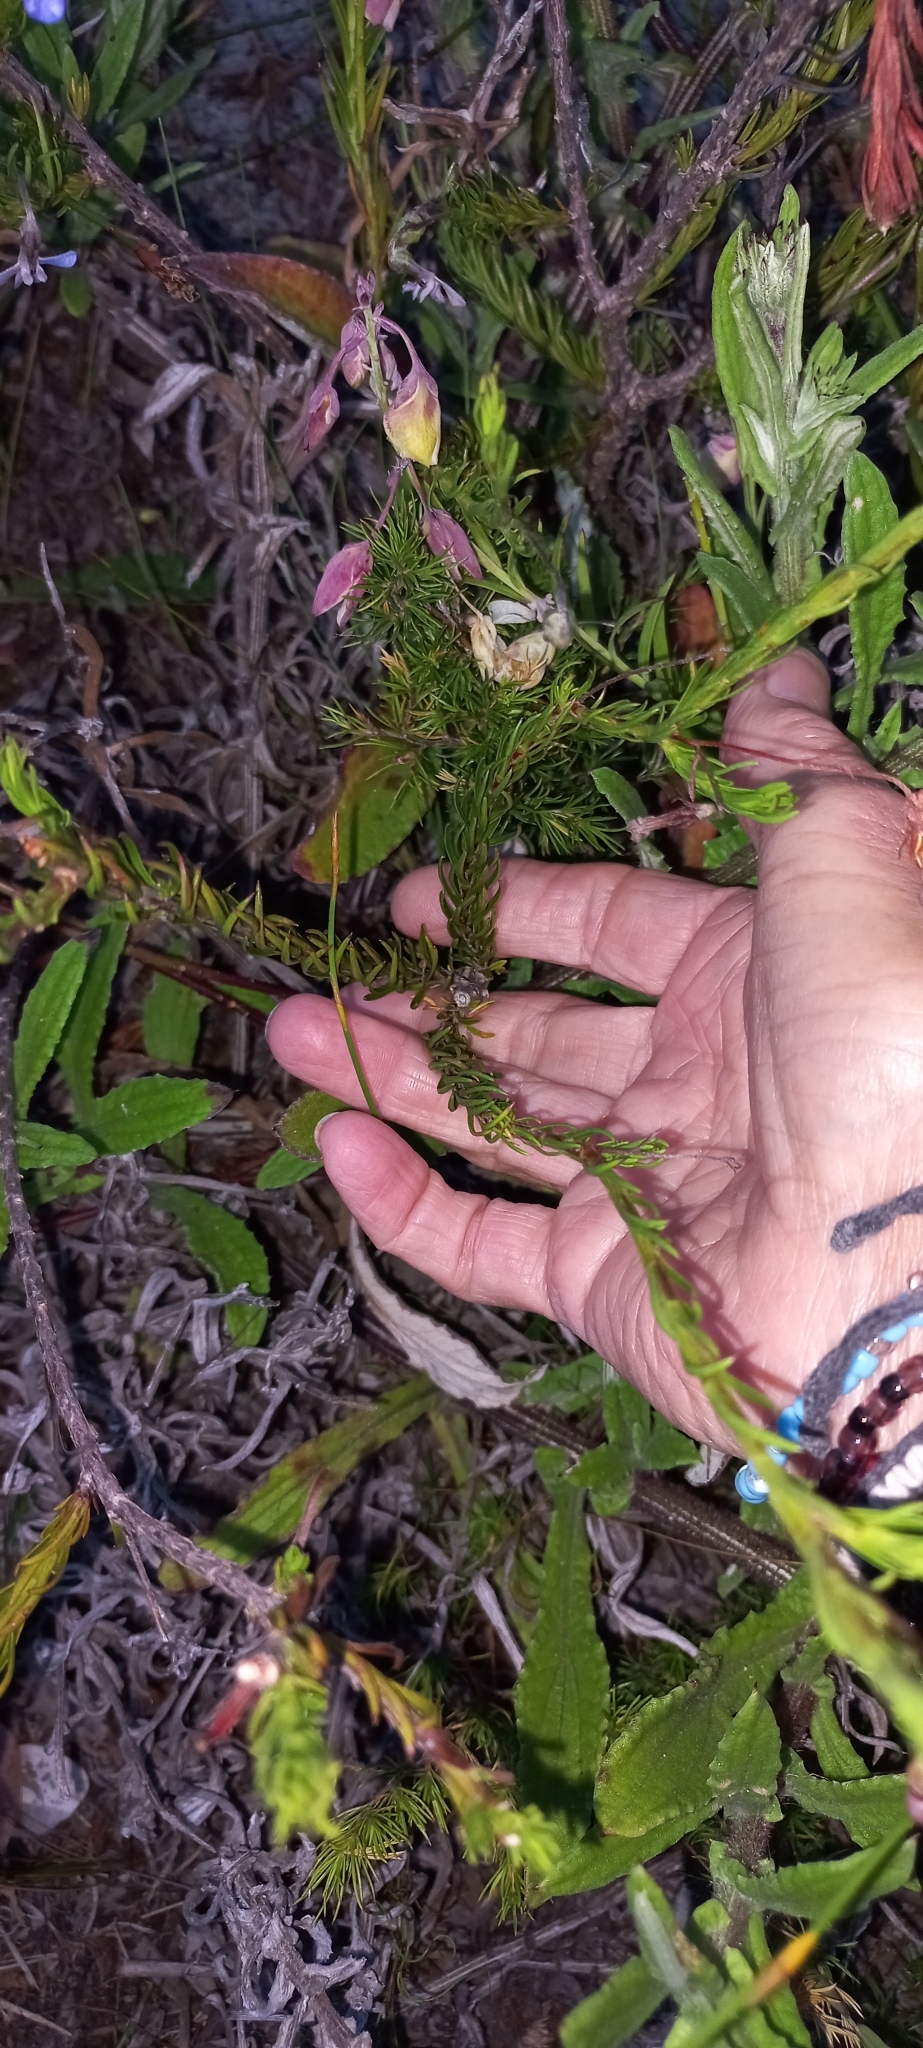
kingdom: Plantae
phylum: Tracheophyta
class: Magnoliopsida
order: Asterales
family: Campanulaceae
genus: Lobelia
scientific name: Lobelia pinifolia
